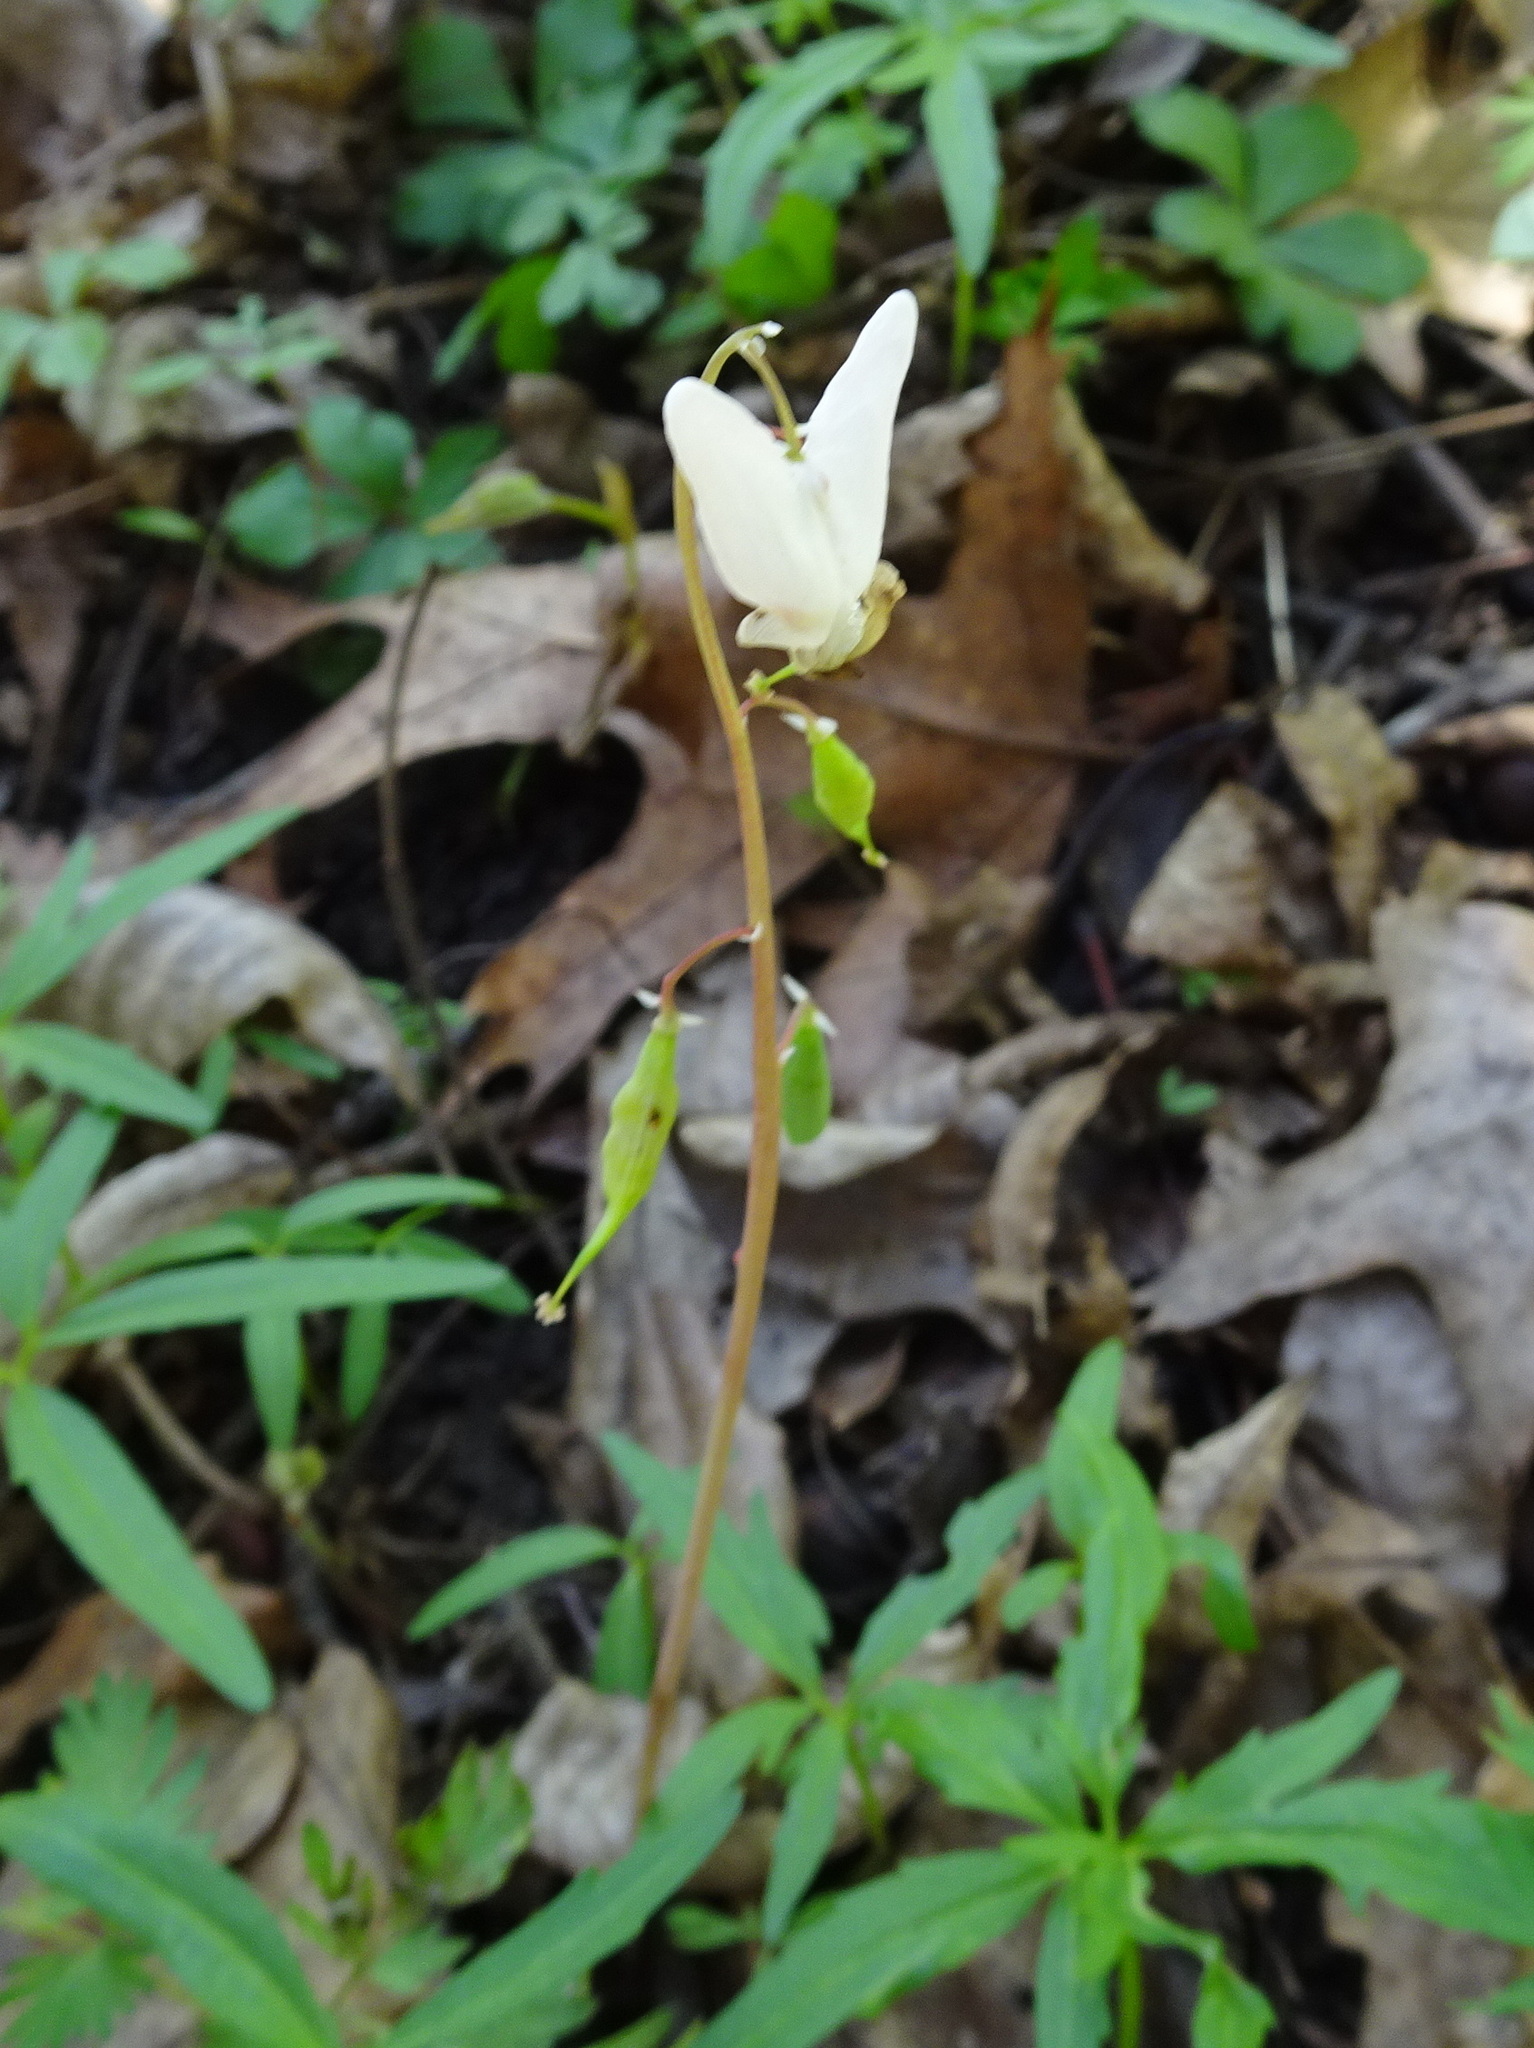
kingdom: Plantae
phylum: Tracheophyta
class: Magnoliopsida
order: Ranunculales
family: Papaveraceae
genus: Dicentra
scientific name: Dicentra cucullaria
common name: Dutchman's breeches
